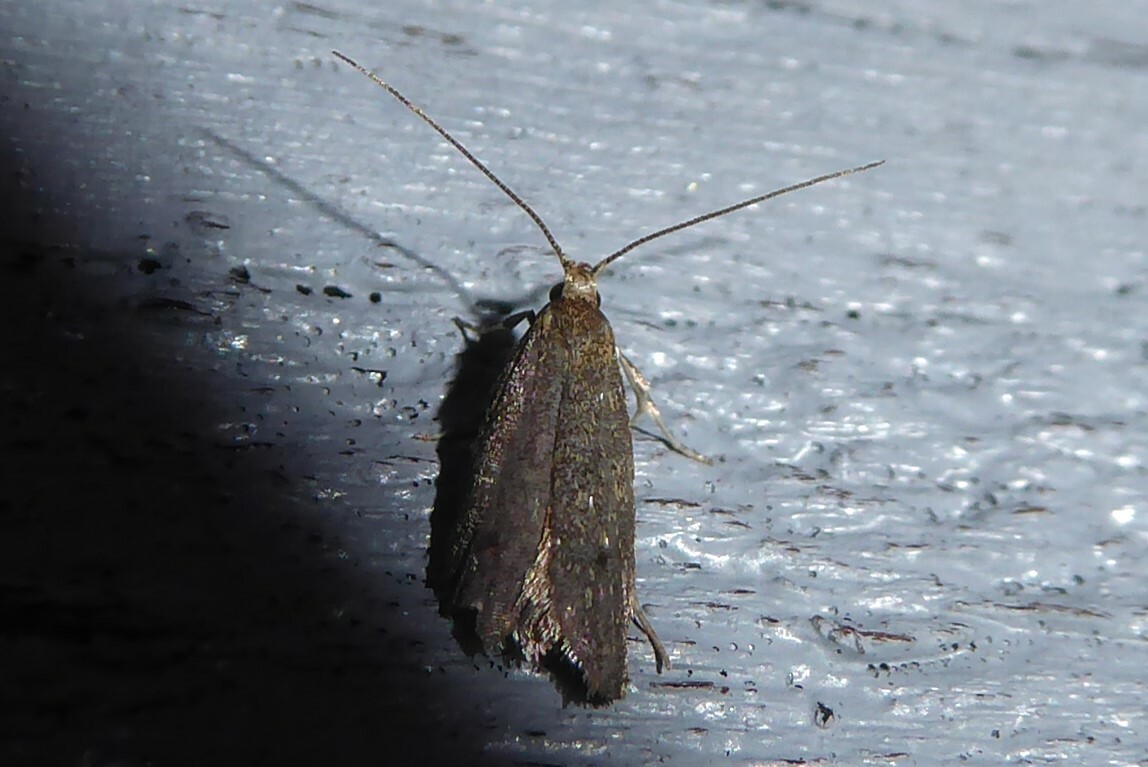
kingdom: Animalia
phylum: Arthropoda
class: Insecta
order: Lepidoptera
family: Oecophoridae
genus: Gymnobathra
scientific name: Gymnobathra tholodella
